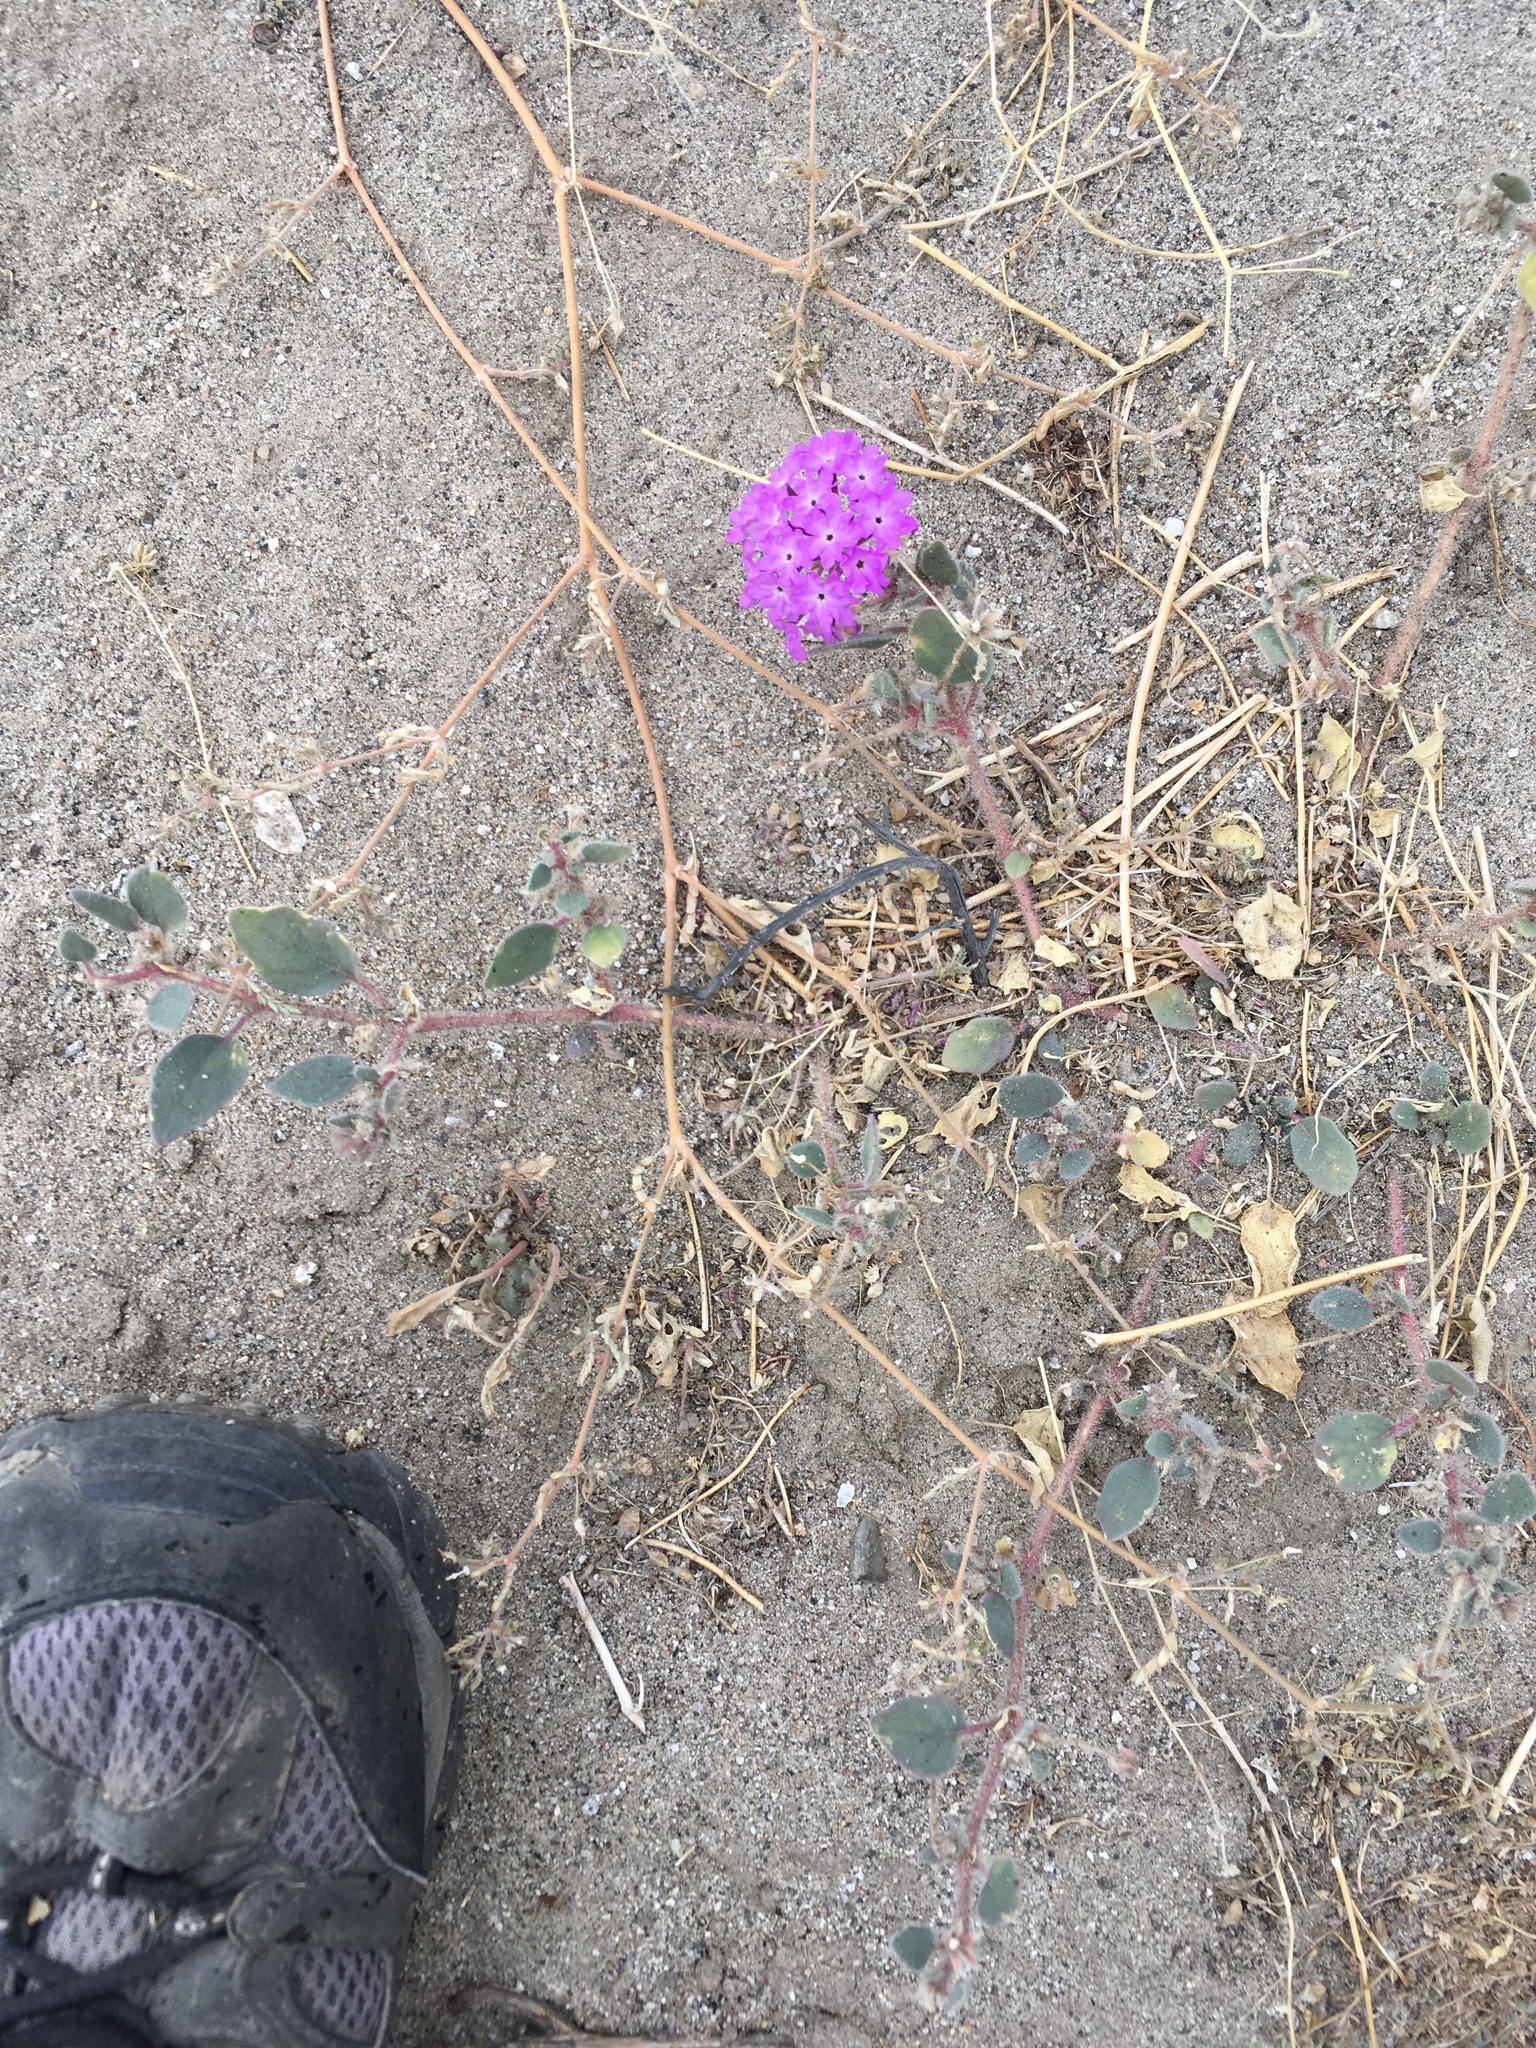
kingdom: Plantae
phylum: Tracheophyta
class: Magnoliopsida
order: Caryophyllales
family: Nyctaginaceae
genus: Abronia
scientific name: Abronia villosa
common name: Desert sand-verbena
